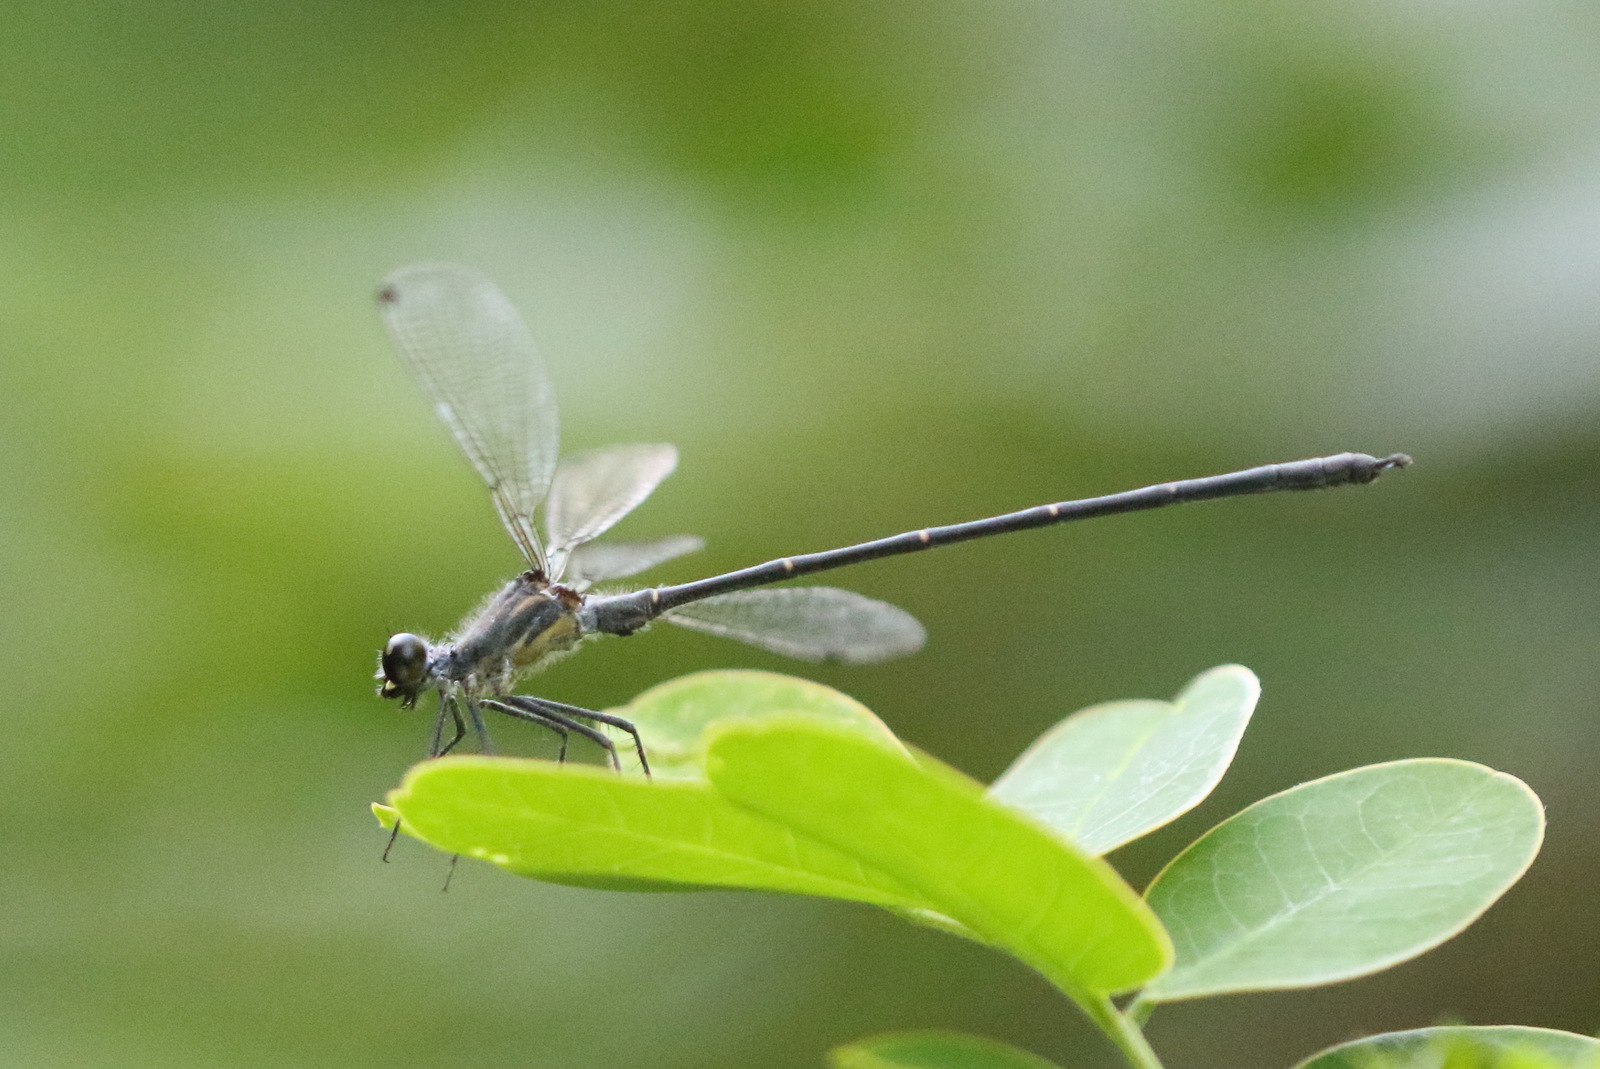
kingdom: Animalia
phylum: Arthropoda
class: Insecta
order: Odonata
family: Argiolestidae
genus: Austroargiolestes
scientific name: Austroargiolestes icteromelas
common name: Common flatwing
